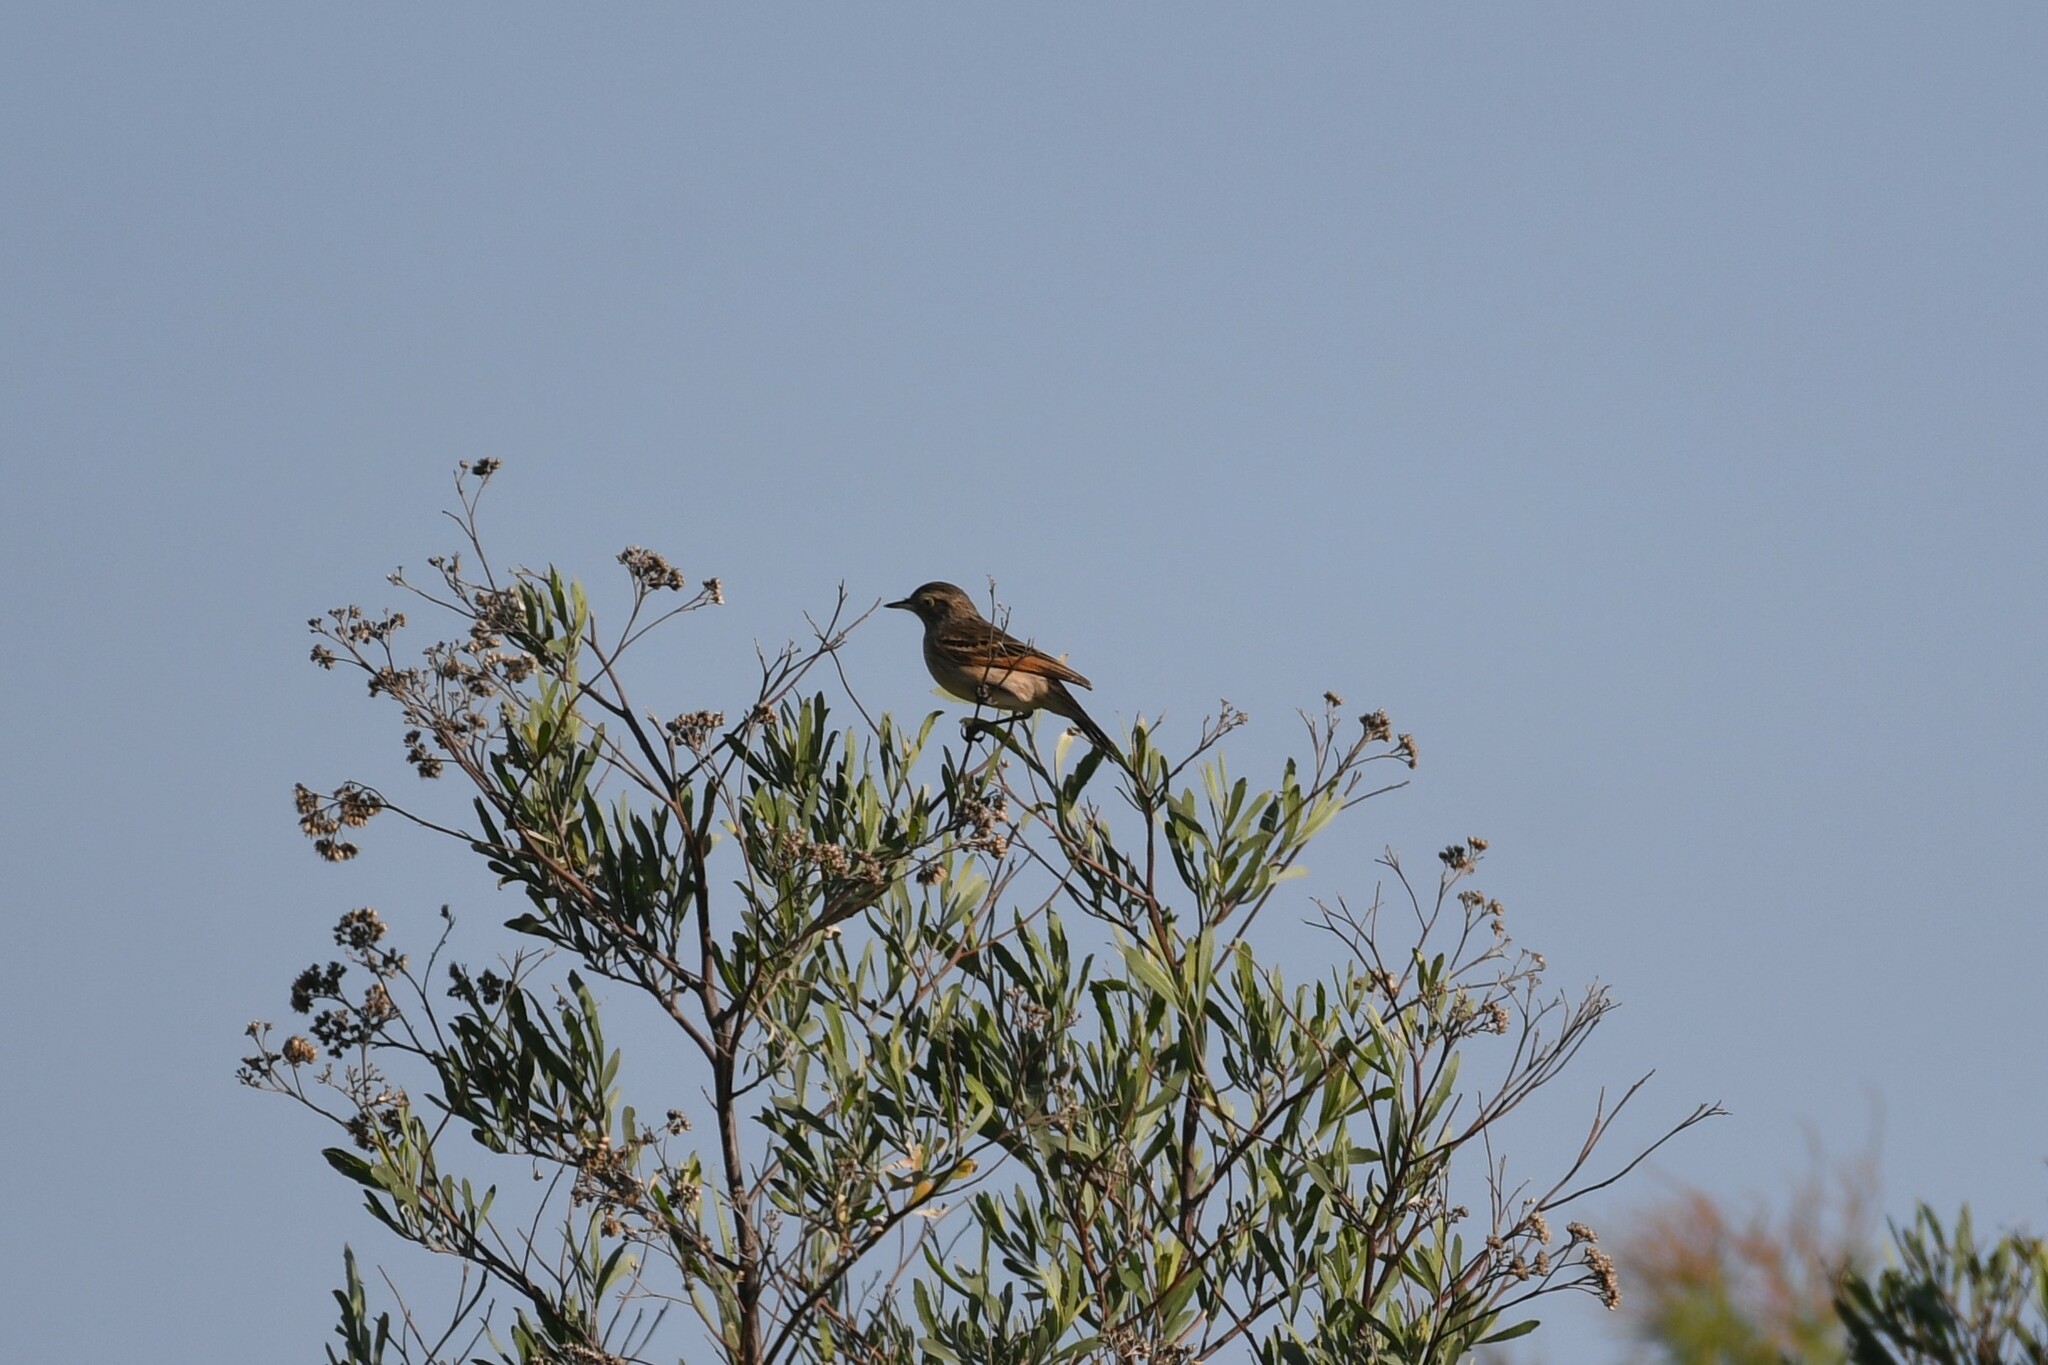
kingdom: Animalia
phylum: Chordata
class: Aves
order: Passeriformes
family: Tyrannidae
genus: Hymenops
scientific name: Hymenops perspicillatus
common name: Spectacled tyrant
